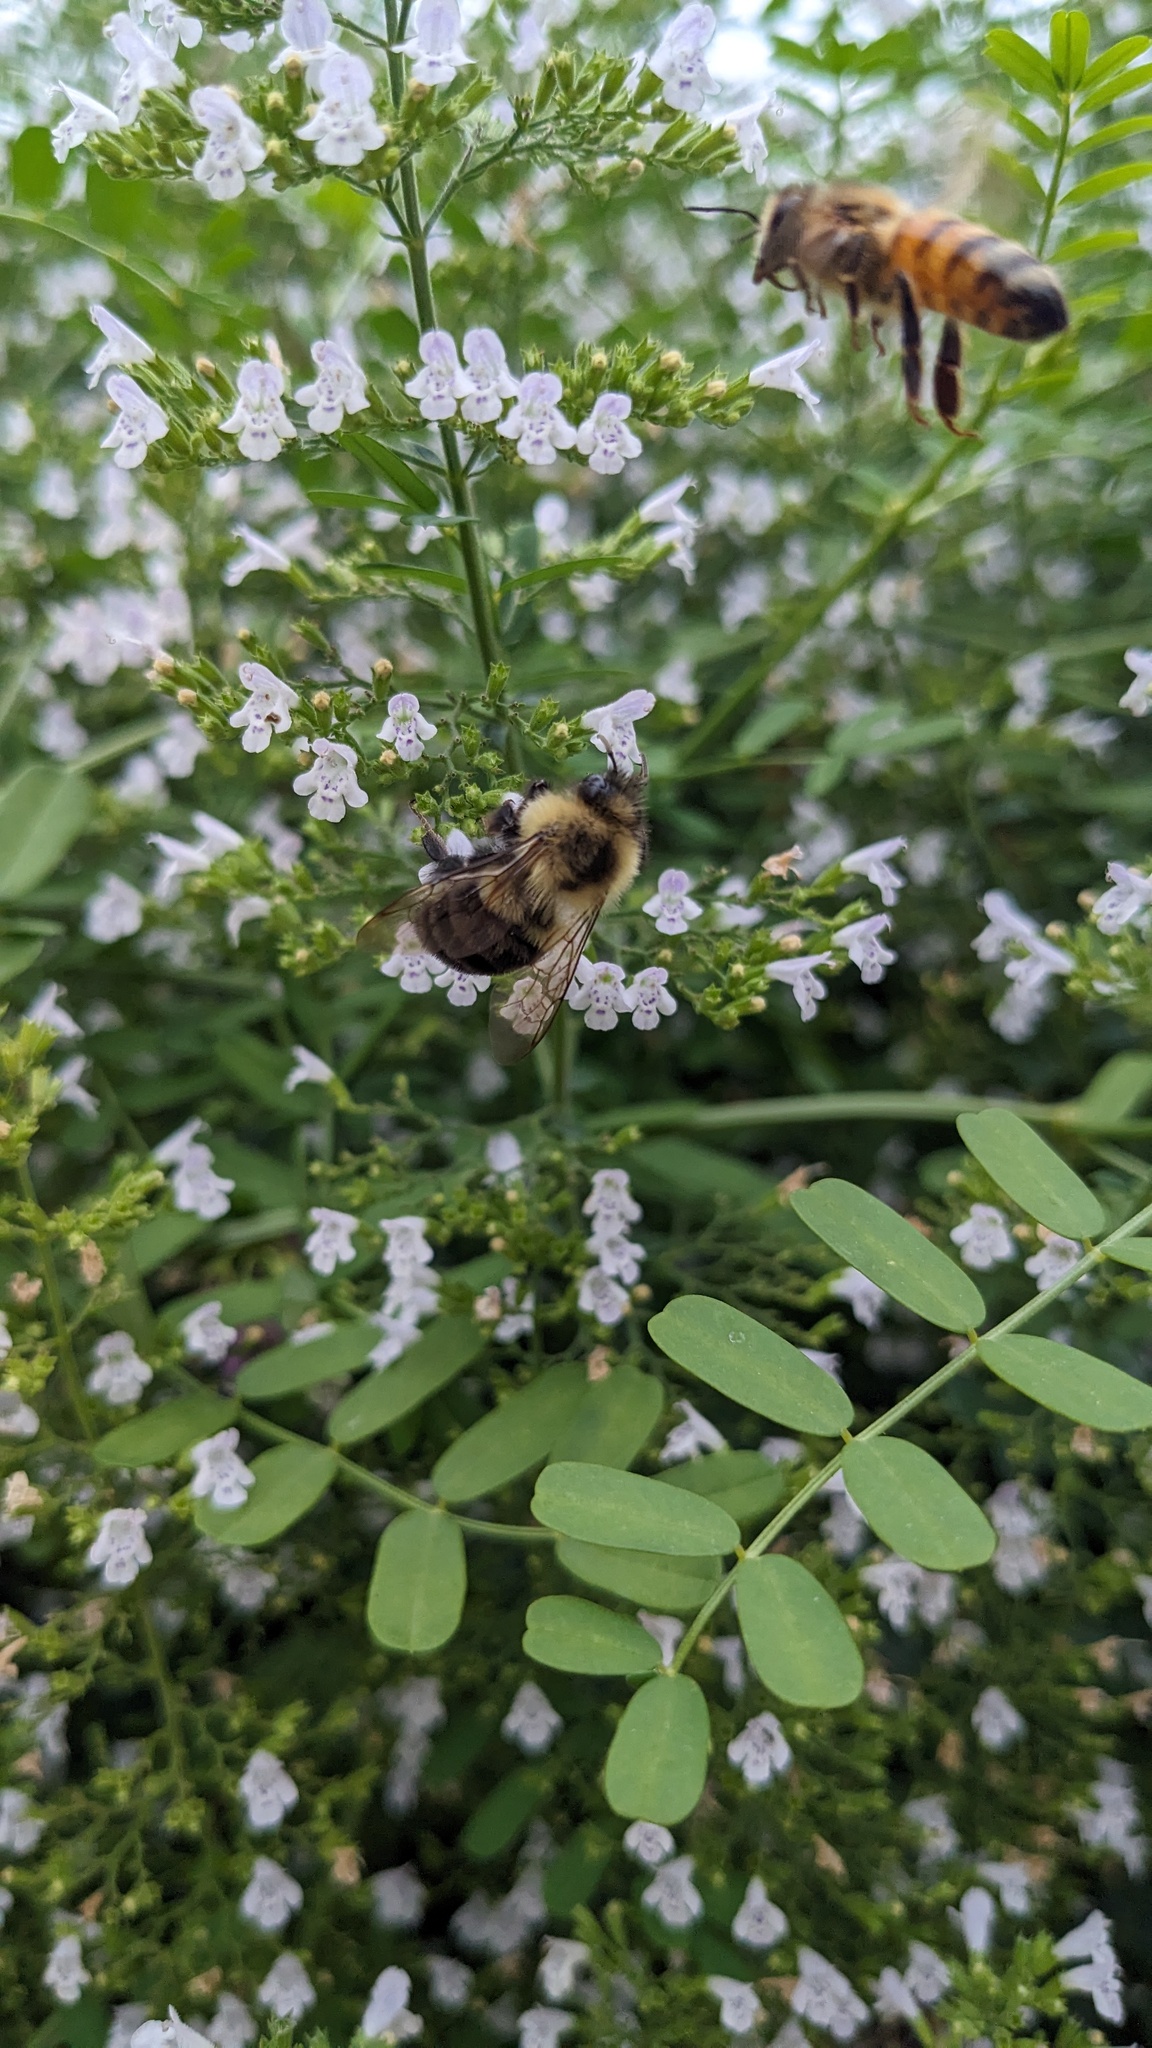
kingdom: Animalia
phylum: Arthropoda
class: Insecta
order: Hymenoptera
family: Apidae
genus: Bombus
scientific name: Bombus impatiens
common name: Common eastern bumble bee
